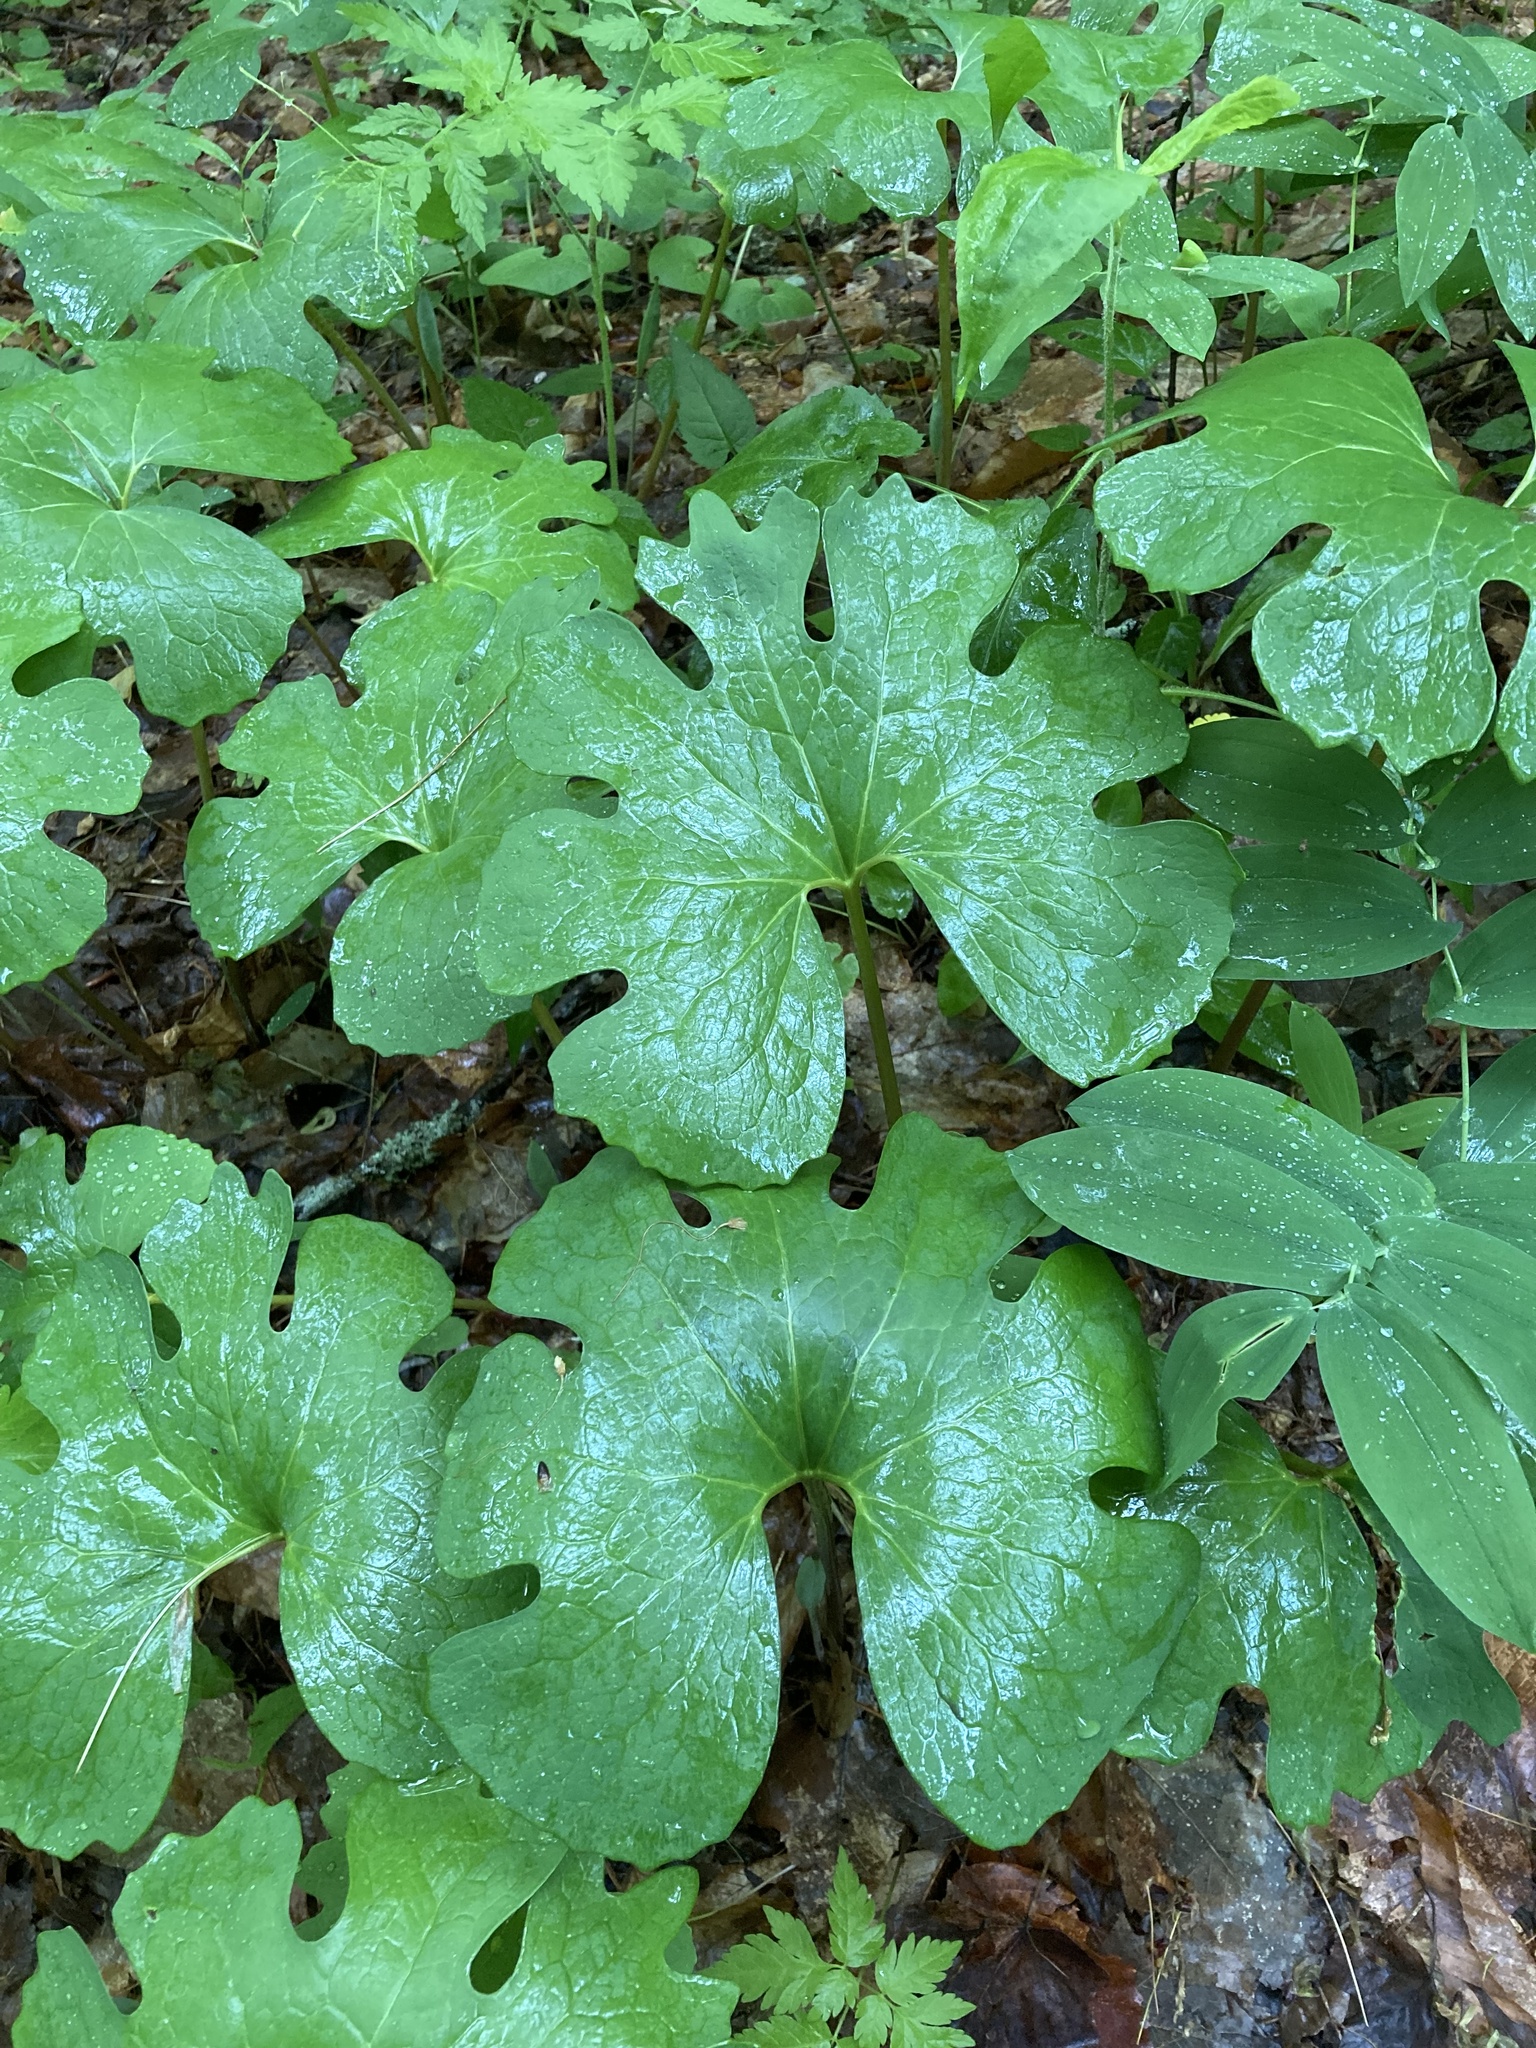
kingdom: Plantae
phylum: Tracheophyta
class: Magnoliopsida
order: Ranunculales
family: Papaveraceae
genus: Sanguinaria
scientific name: Sanguinaria canadensis
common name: Bloodroot
